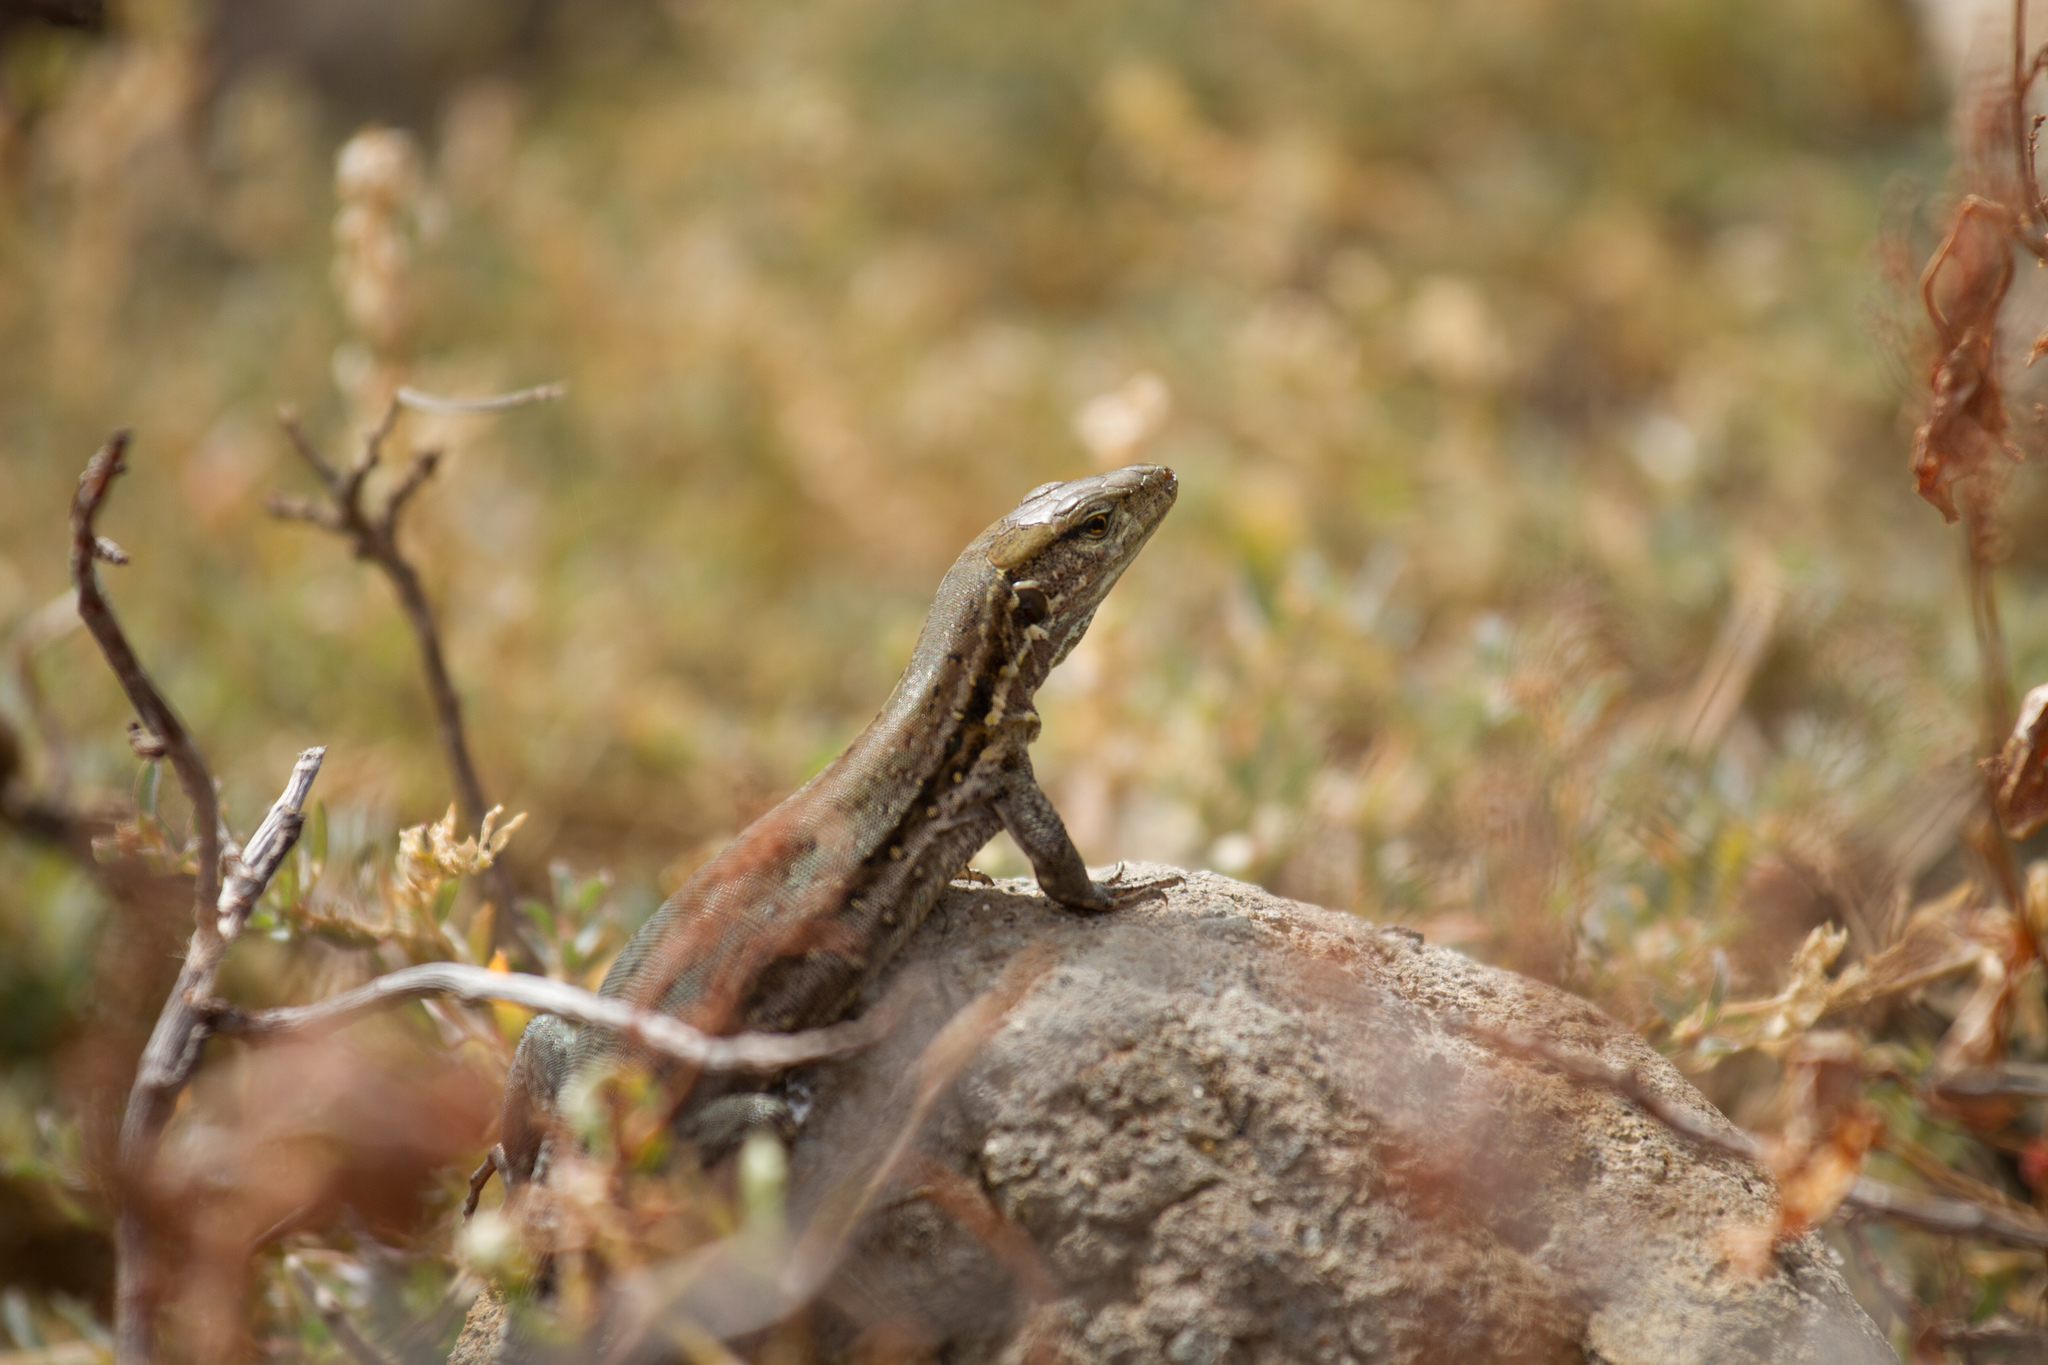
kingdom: Animalia
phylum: Chordata
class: Squamata
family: Lacertidae
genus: Gallotia
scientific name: Gallotia stehlini
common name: Gran canaria giant lizard
